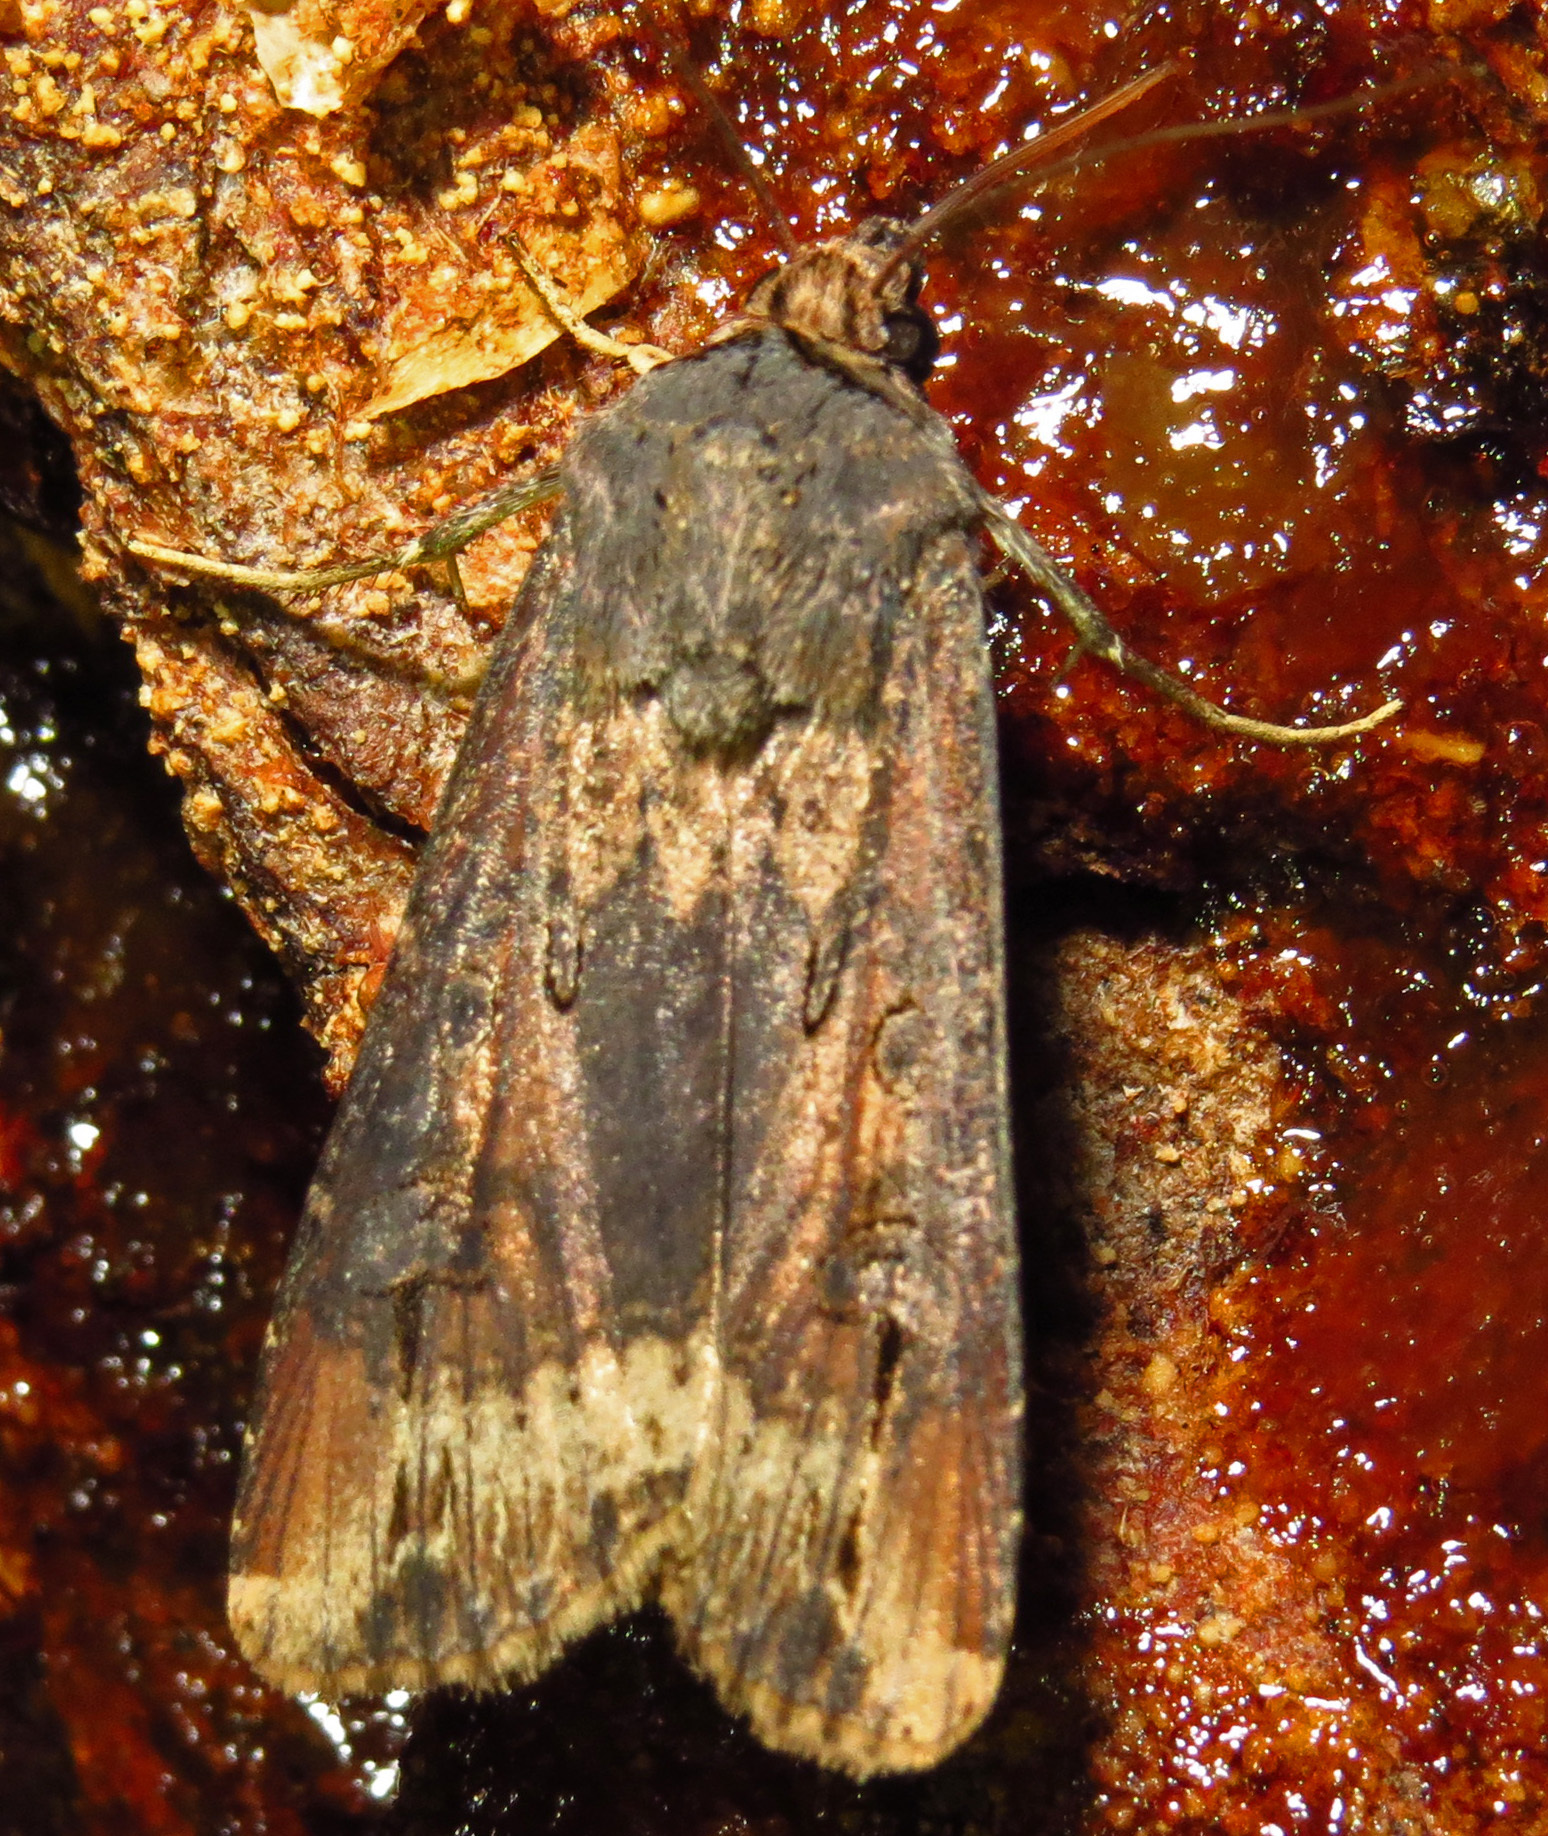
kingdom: Animalia
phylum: Arthropoda
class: Insecta
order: Lepidoptera
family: Noctuidae
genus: Agrotis
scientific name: Agrotis ipsilon
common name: Dark sword-grass
